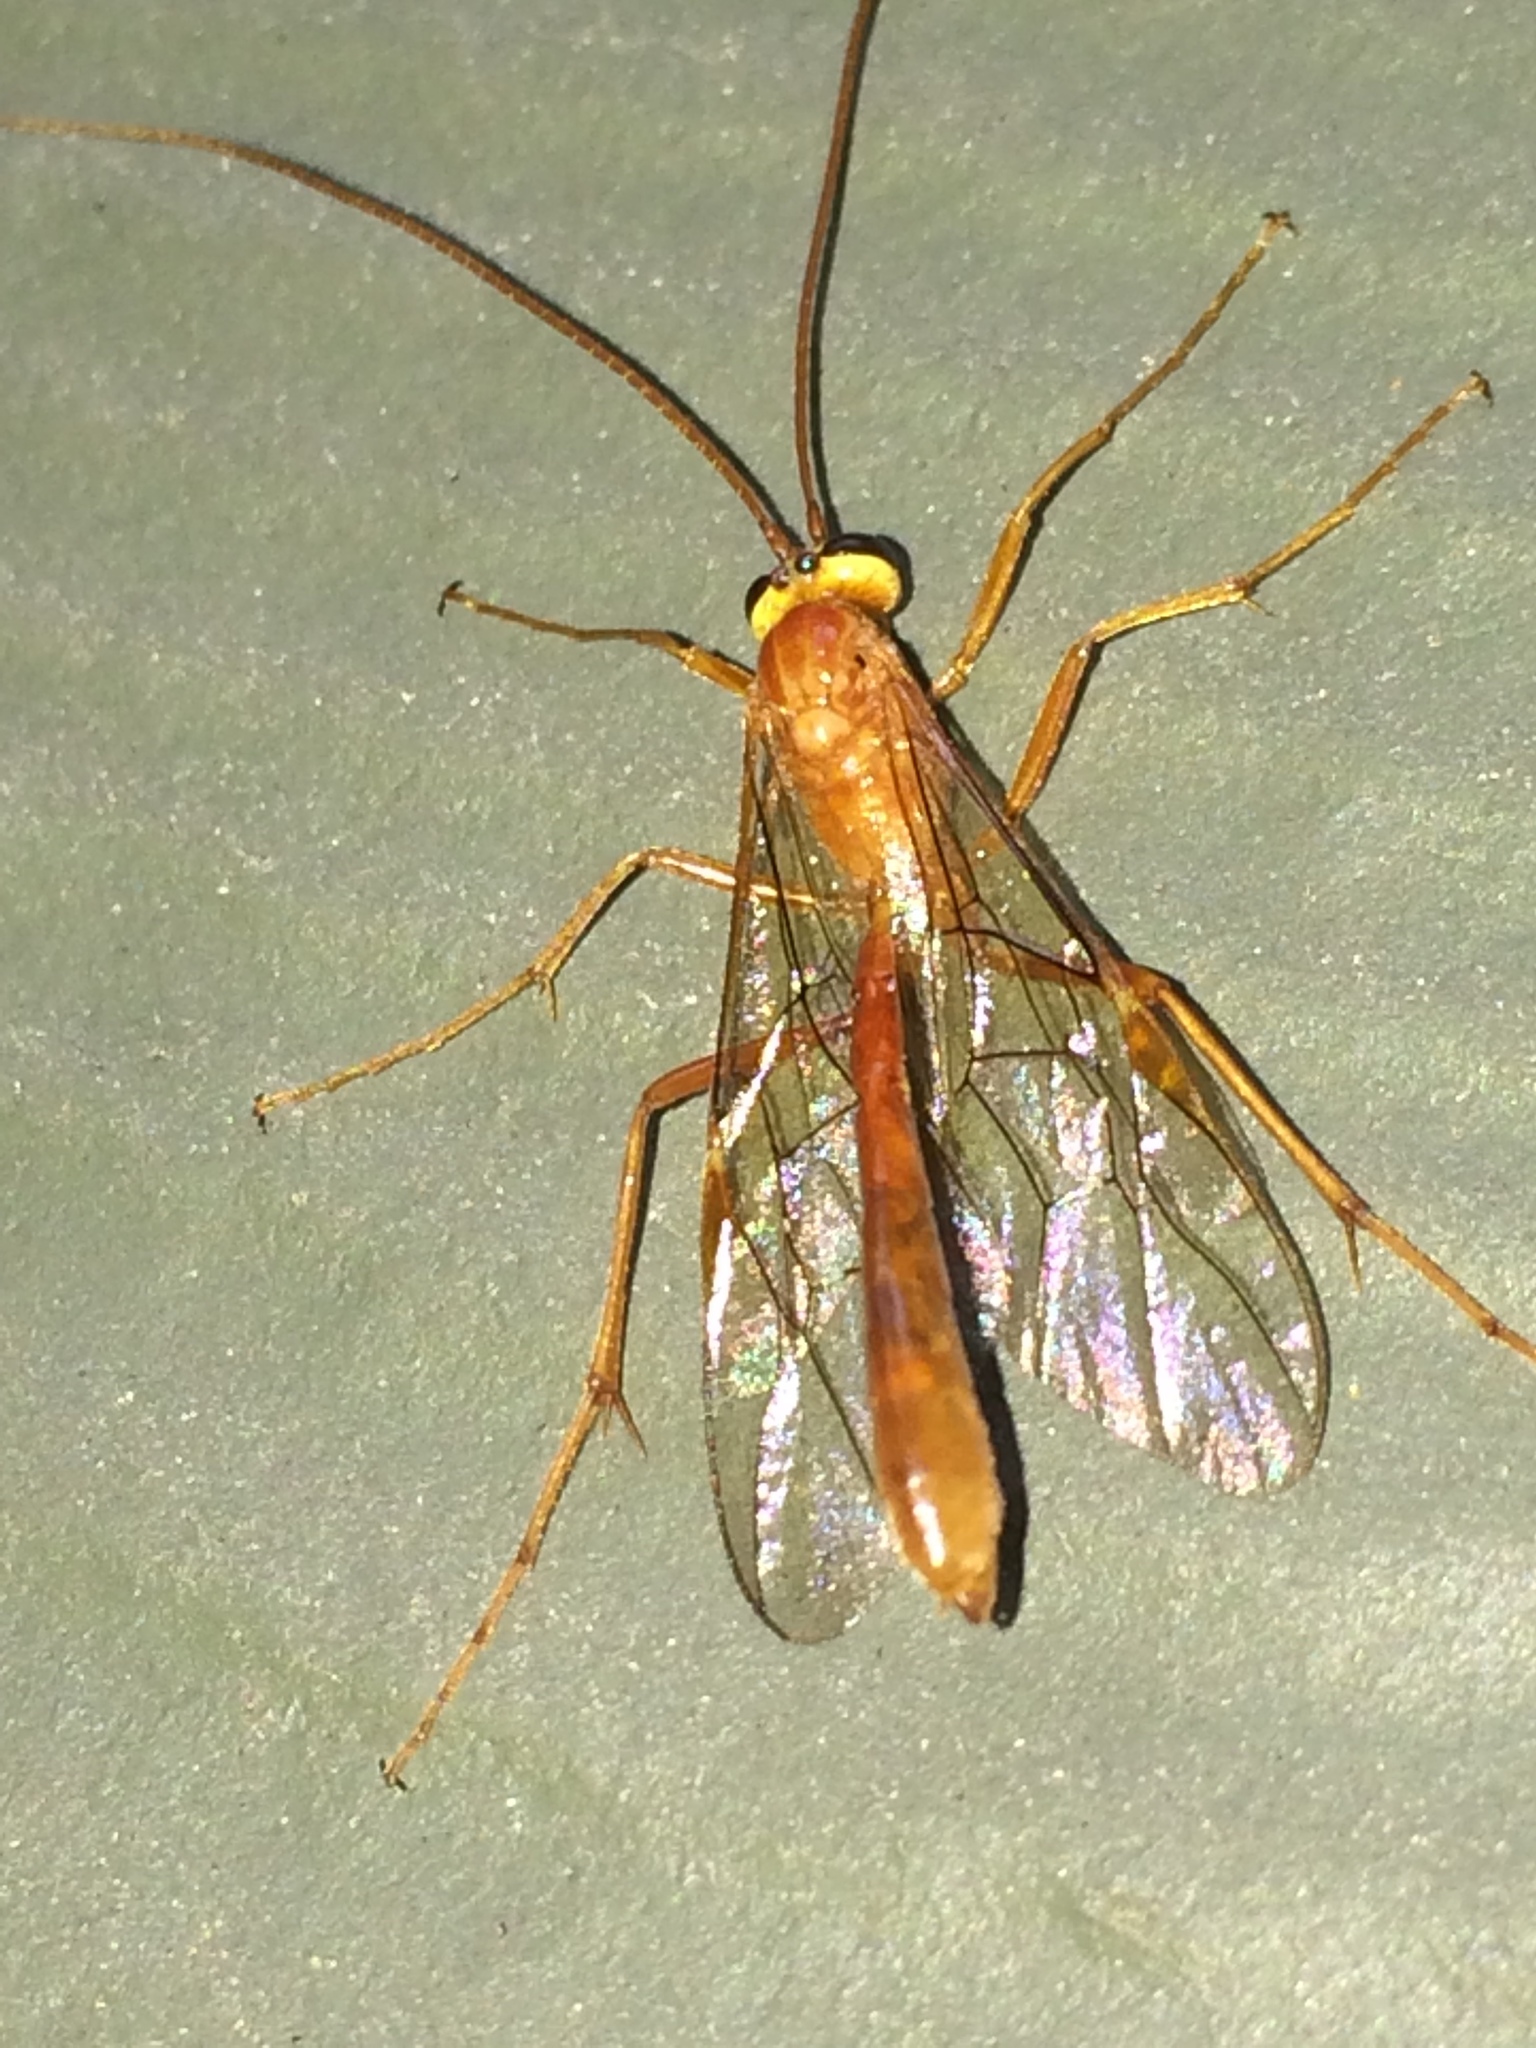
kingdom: Animalia
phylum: Arthropoda
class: Insecta
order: Hymenoptera
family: Ichneumonidae
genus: Ophion
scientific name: Ophion
